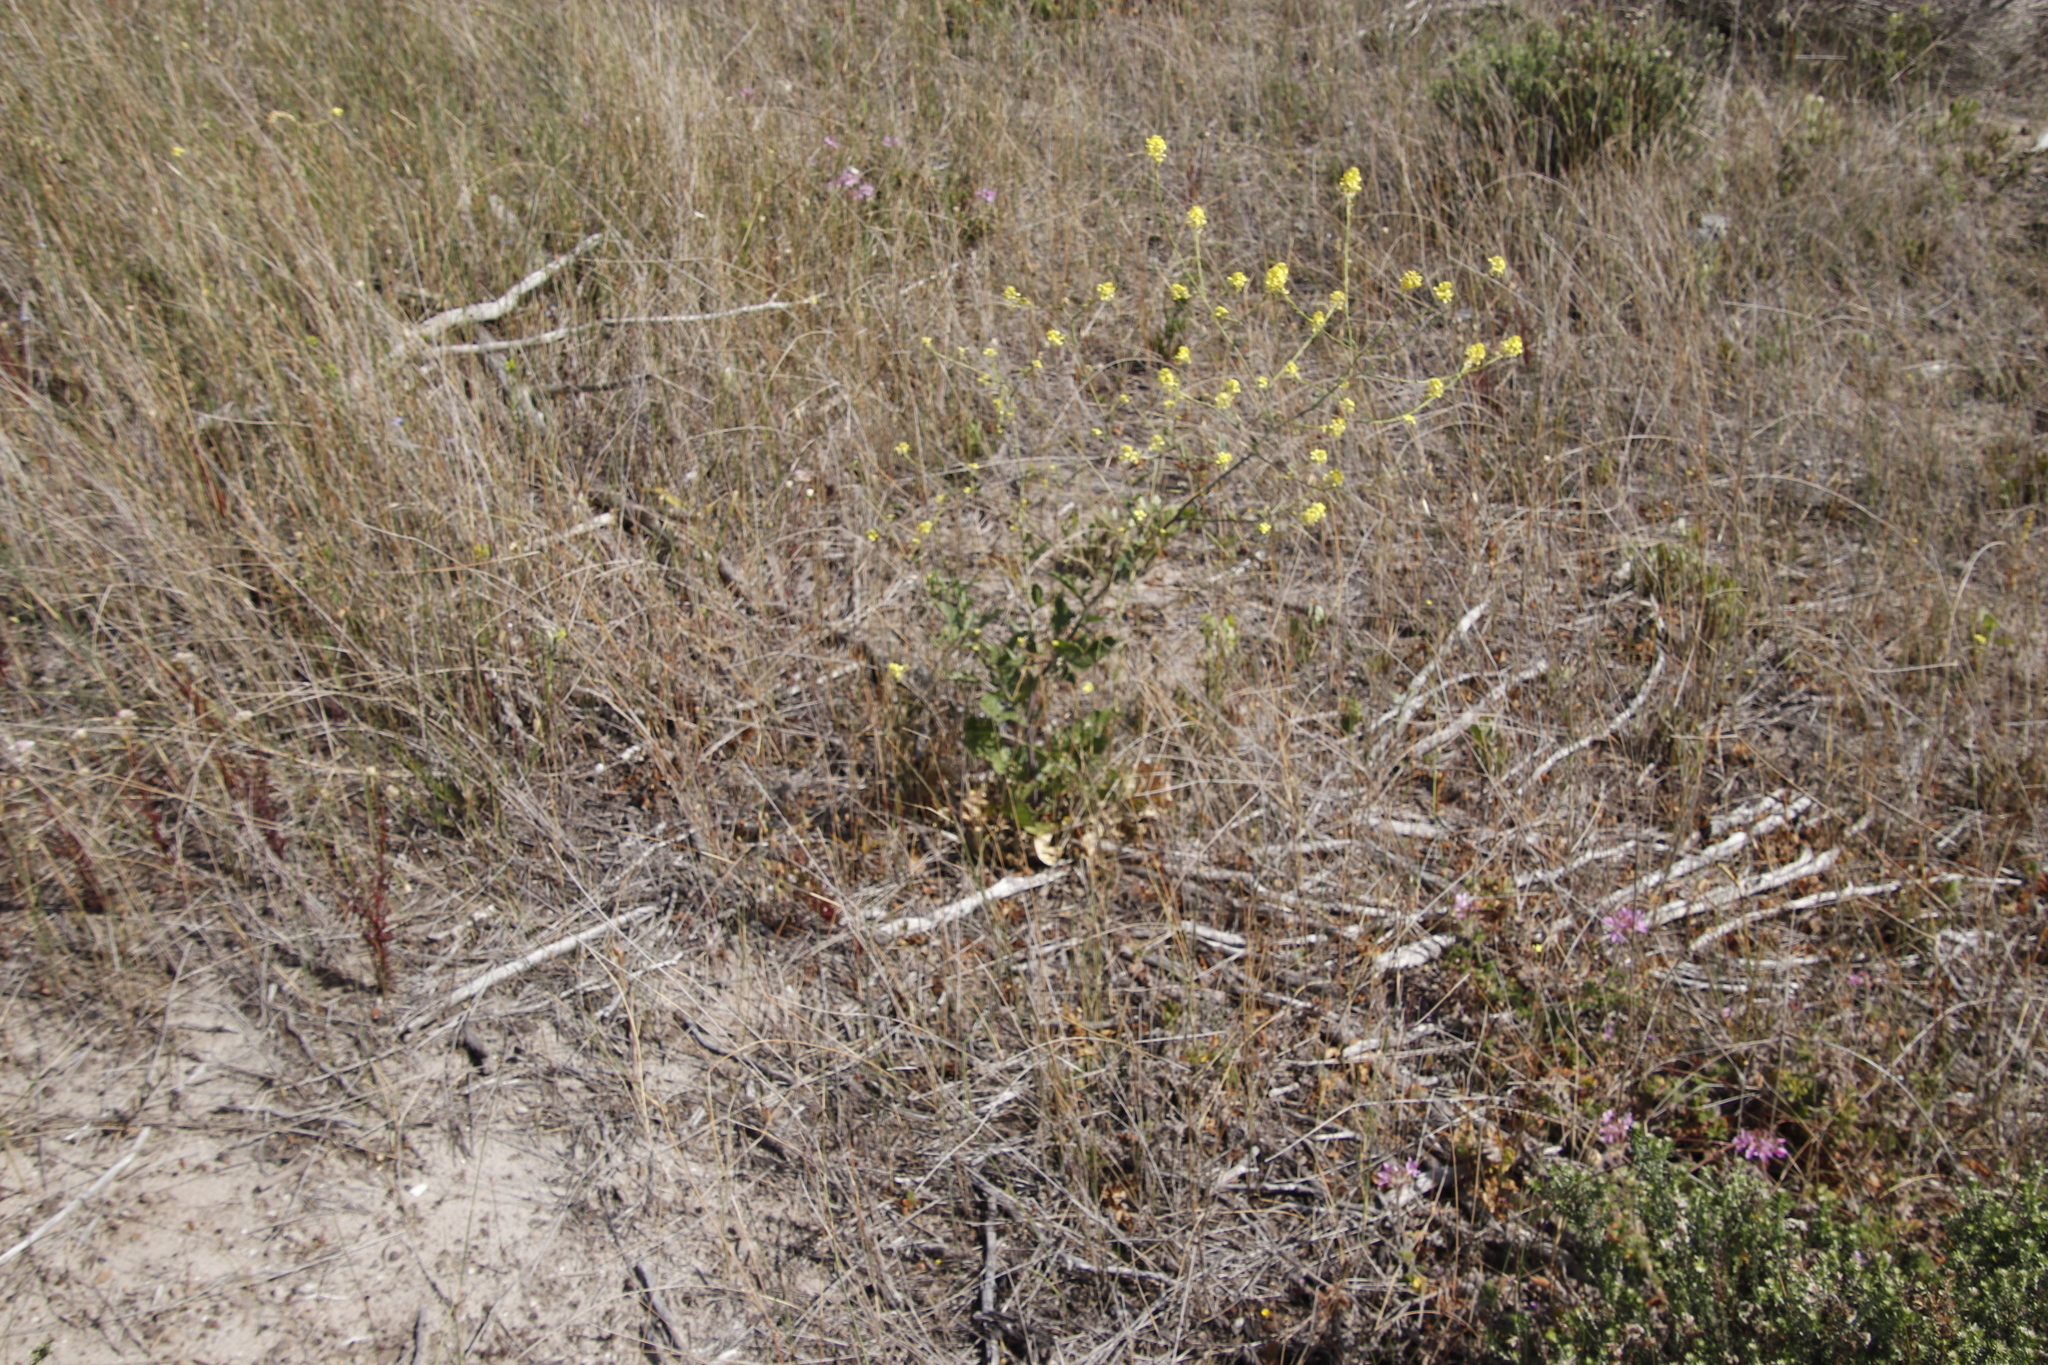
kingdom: Plantae
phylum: Tracheophyta
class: Magnoliopsida
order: Brassicales
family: Brassicaceae
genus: Rapistrum
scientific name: Rapistrum rugosum
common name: Annual bastardcabbage
